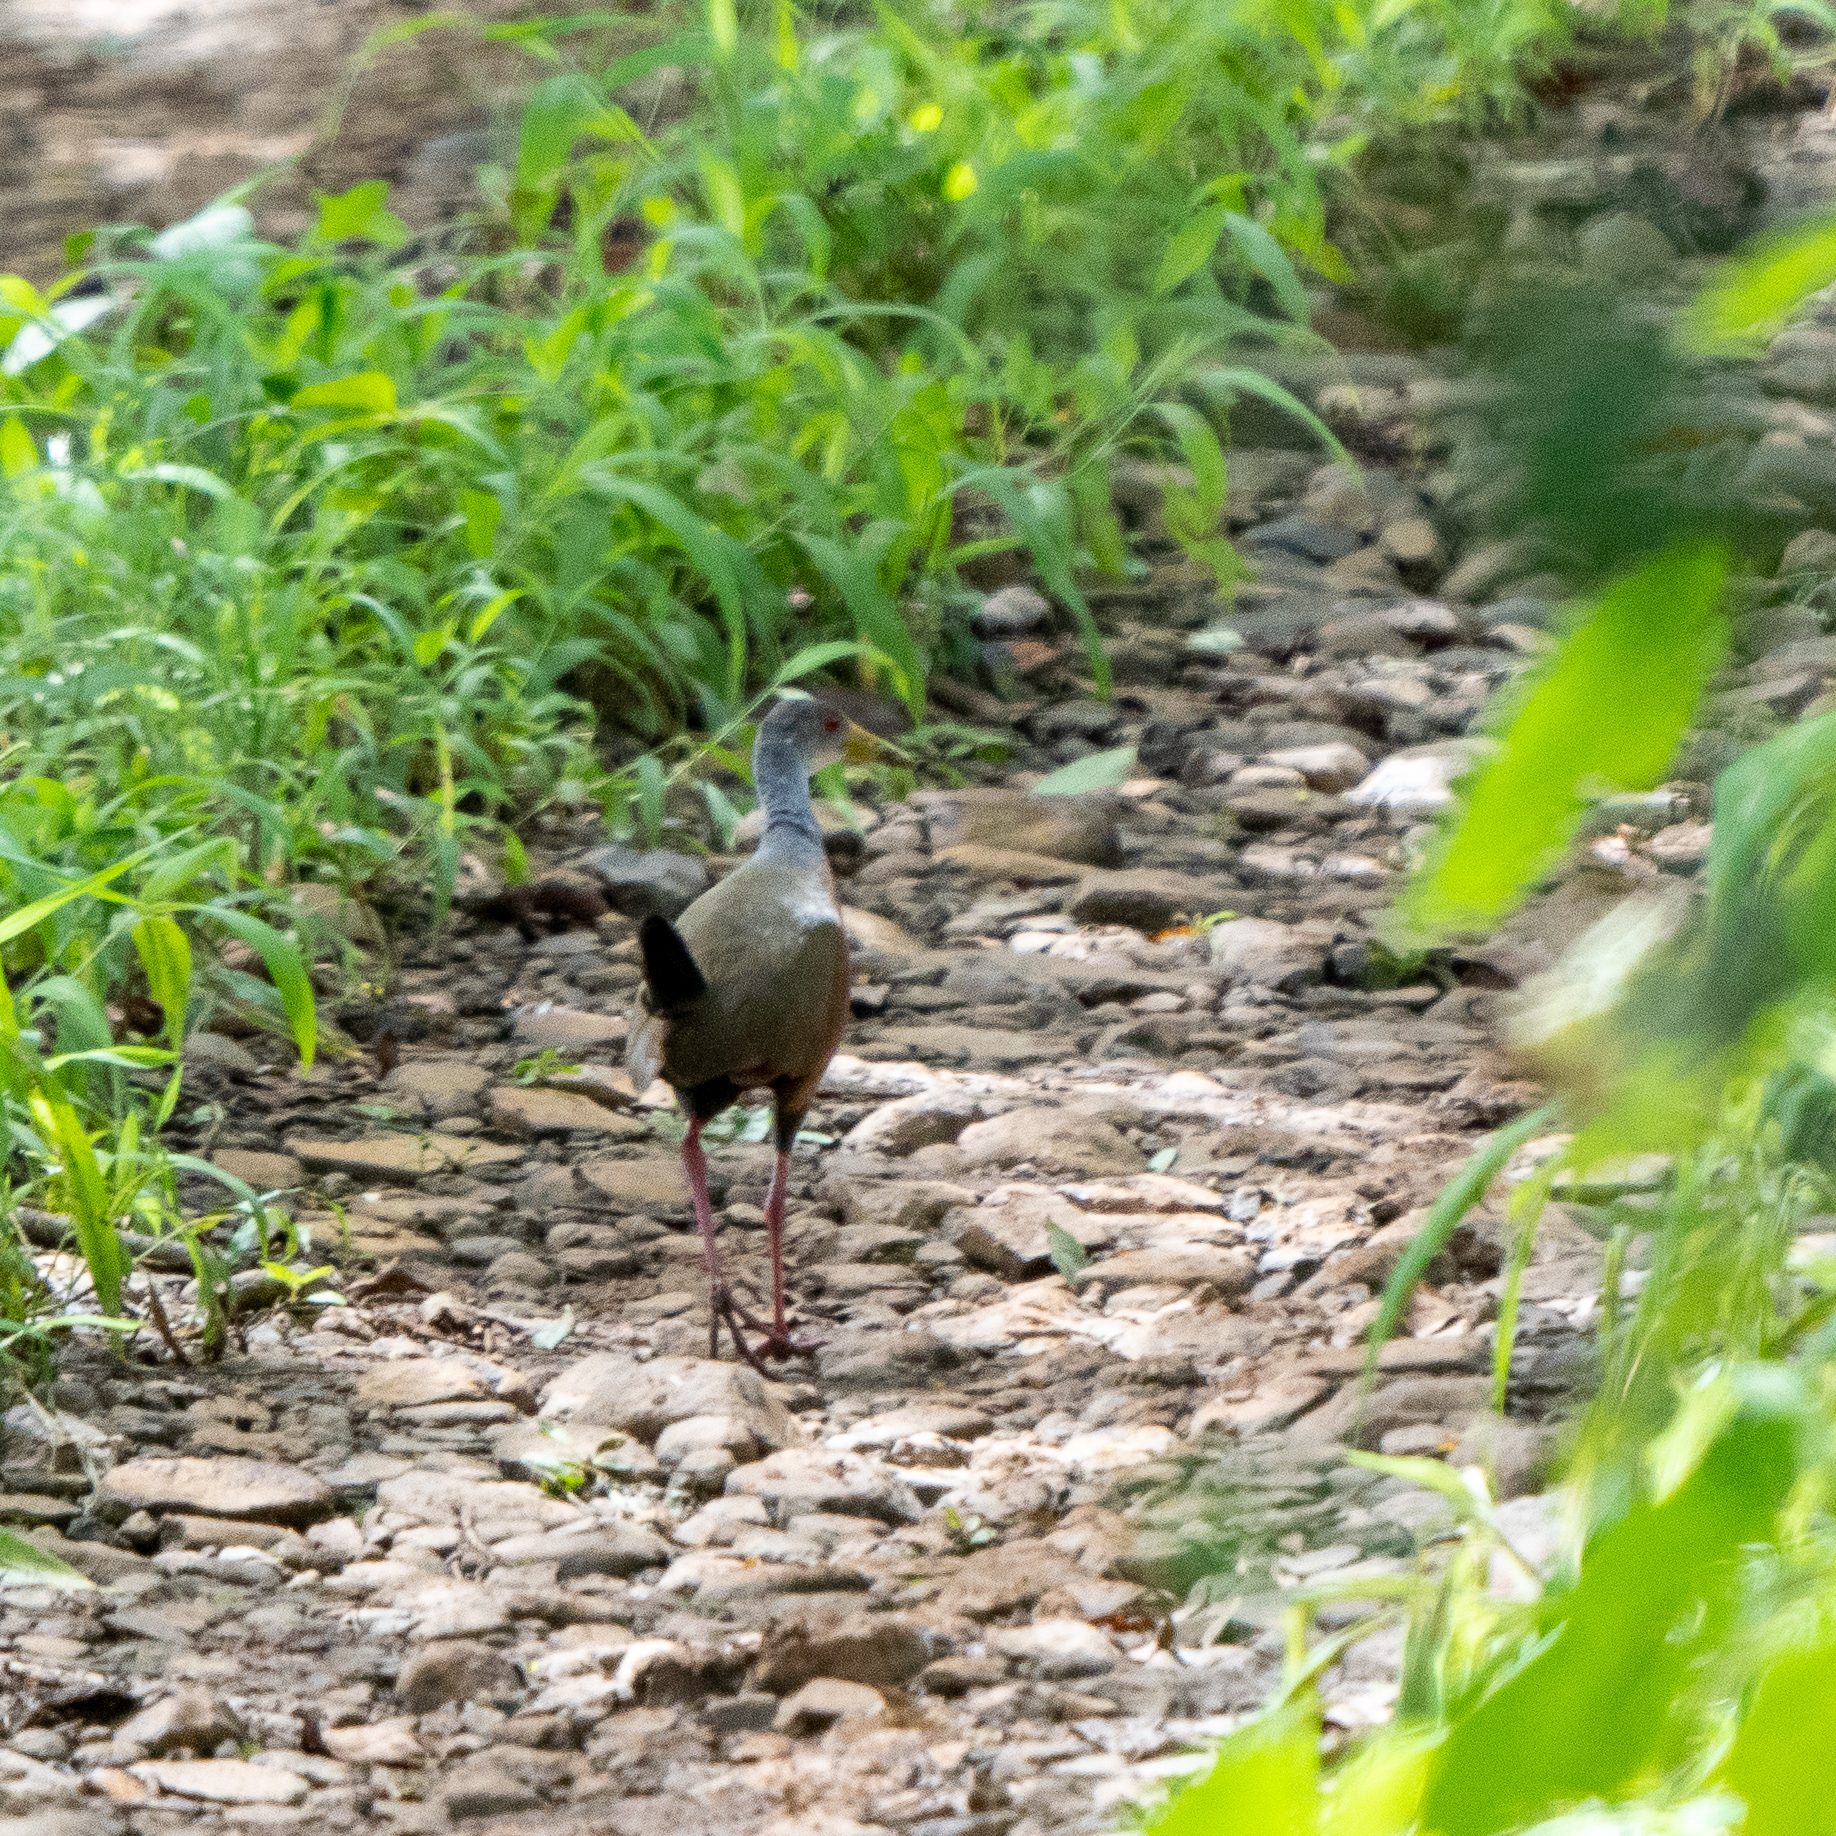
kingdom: Animalia
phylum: Chordata
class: Aves
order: Gruiformes
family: Rallidae
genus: Aramides
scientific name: Aramides cajanea
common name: Gray-necked wood-rail
